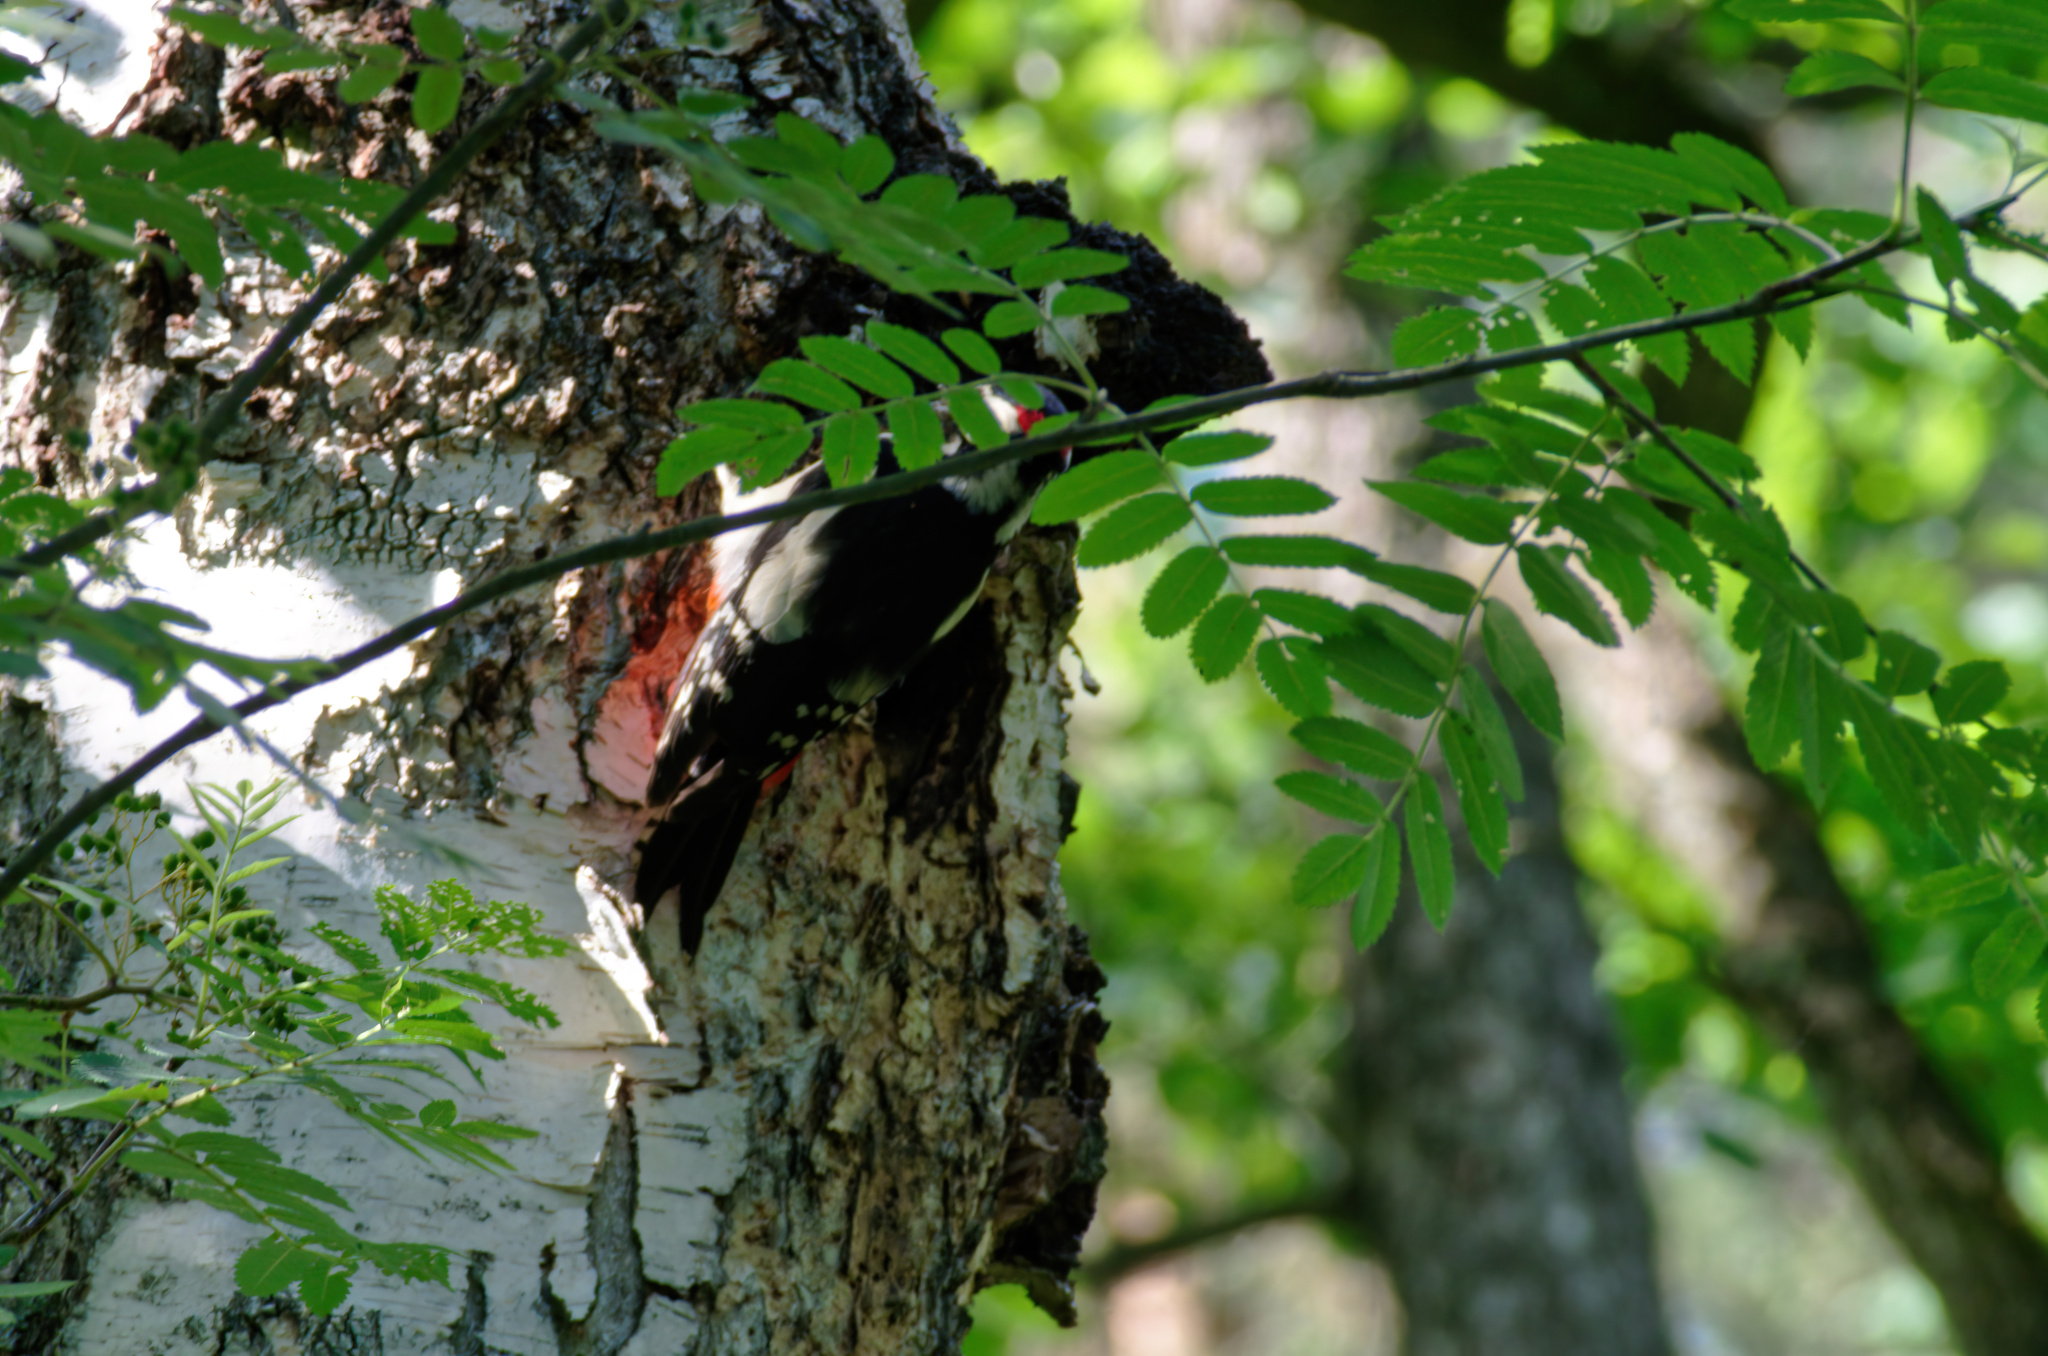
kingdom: Animalia
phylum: Chordata
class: Aves
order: Piciformes
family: Picidae
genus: Dendrocopos
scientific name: Dendrocopos major
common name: Great spotted woodpecker
